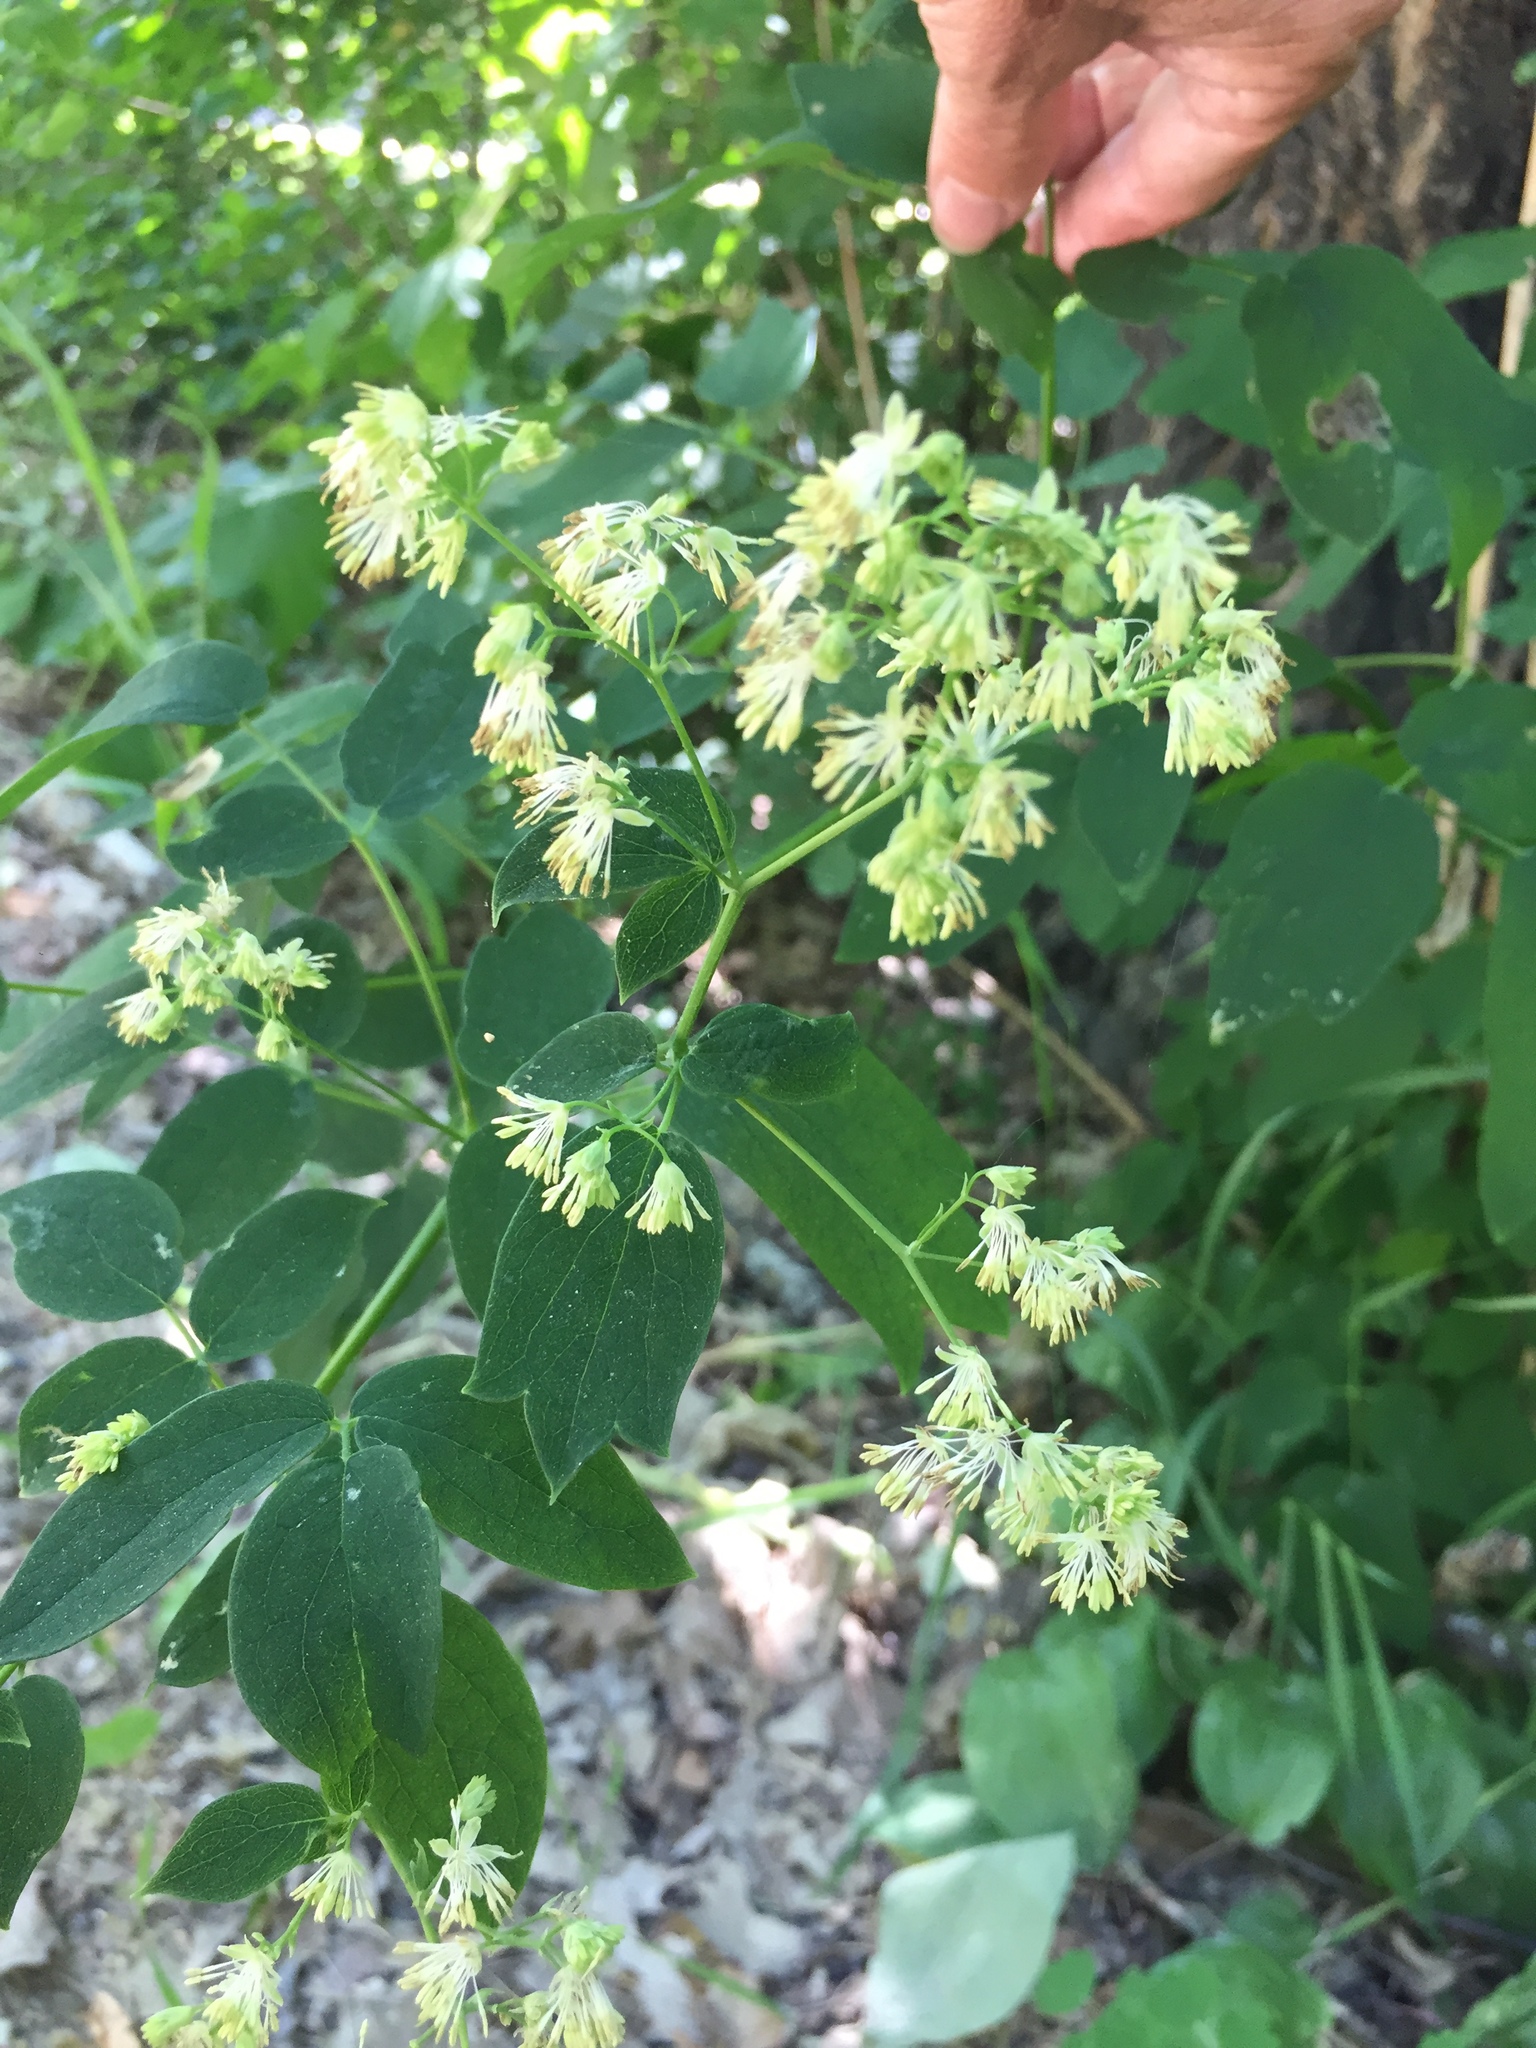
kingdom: Plantae
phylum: Tracheophyta
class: Magnoliopsida
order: Ranunculales
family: Ranunculaceae
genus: Thalictrum
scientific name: Thalictrum dasycarpum
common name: Purple meadow-rue
